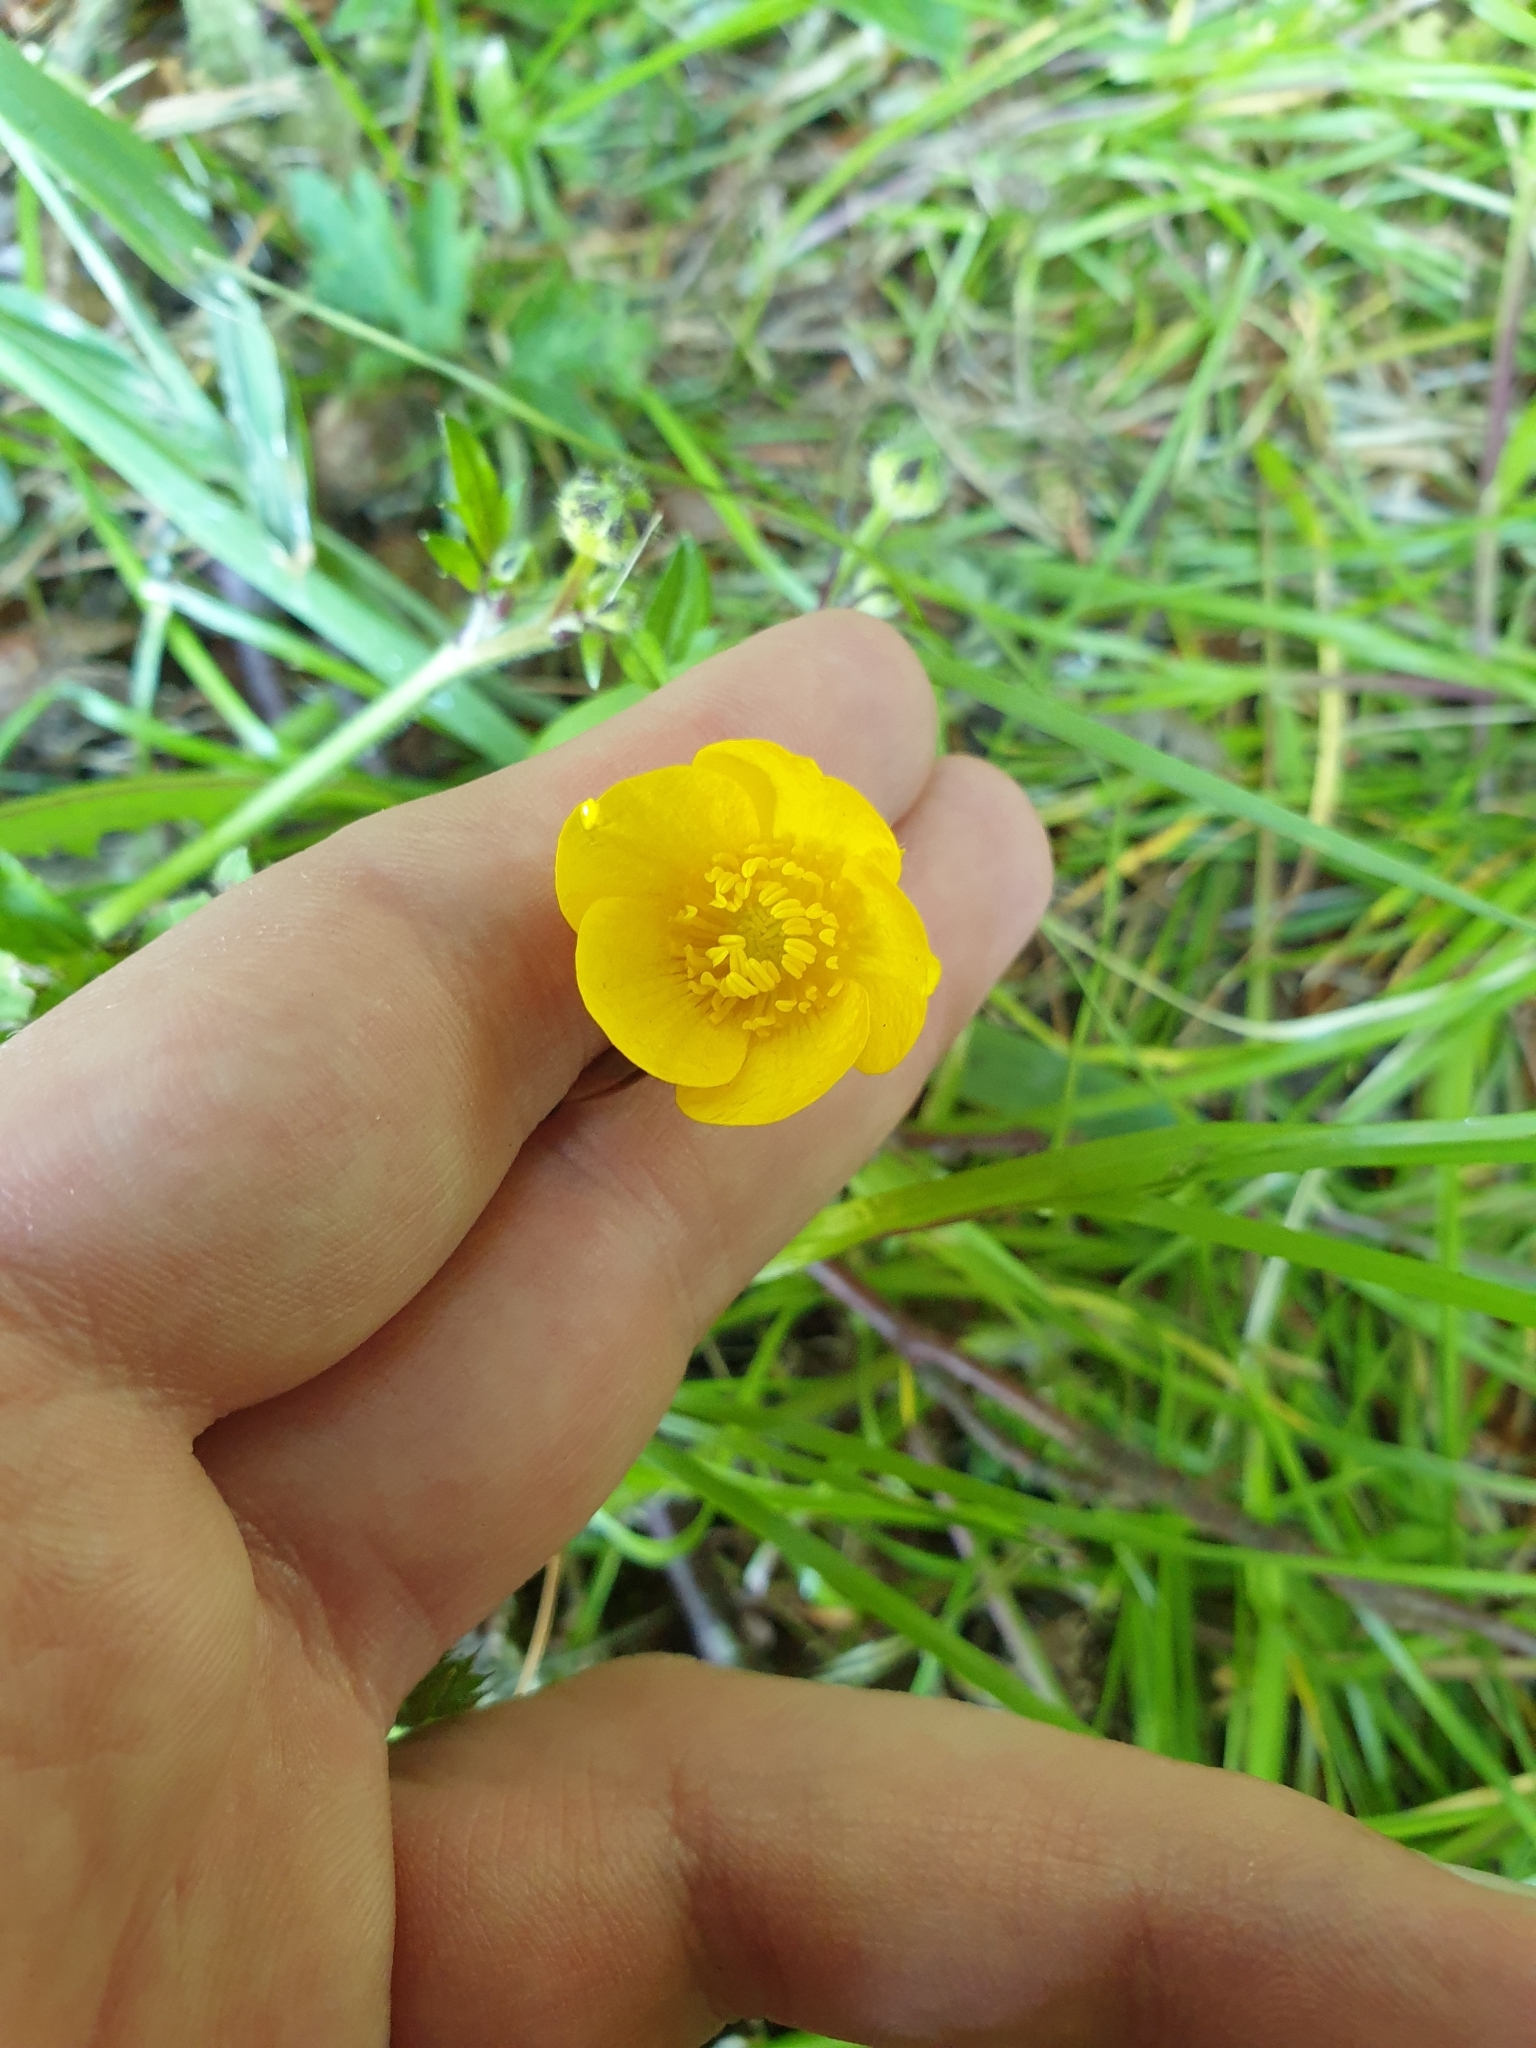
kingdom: Plantae
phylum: Tracheophyta
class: Magnoliopsida
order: Ranunculales
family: Ranunculaceae
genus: Ranunculus
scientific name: Ranunculus repens
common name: Creeping buttercup
